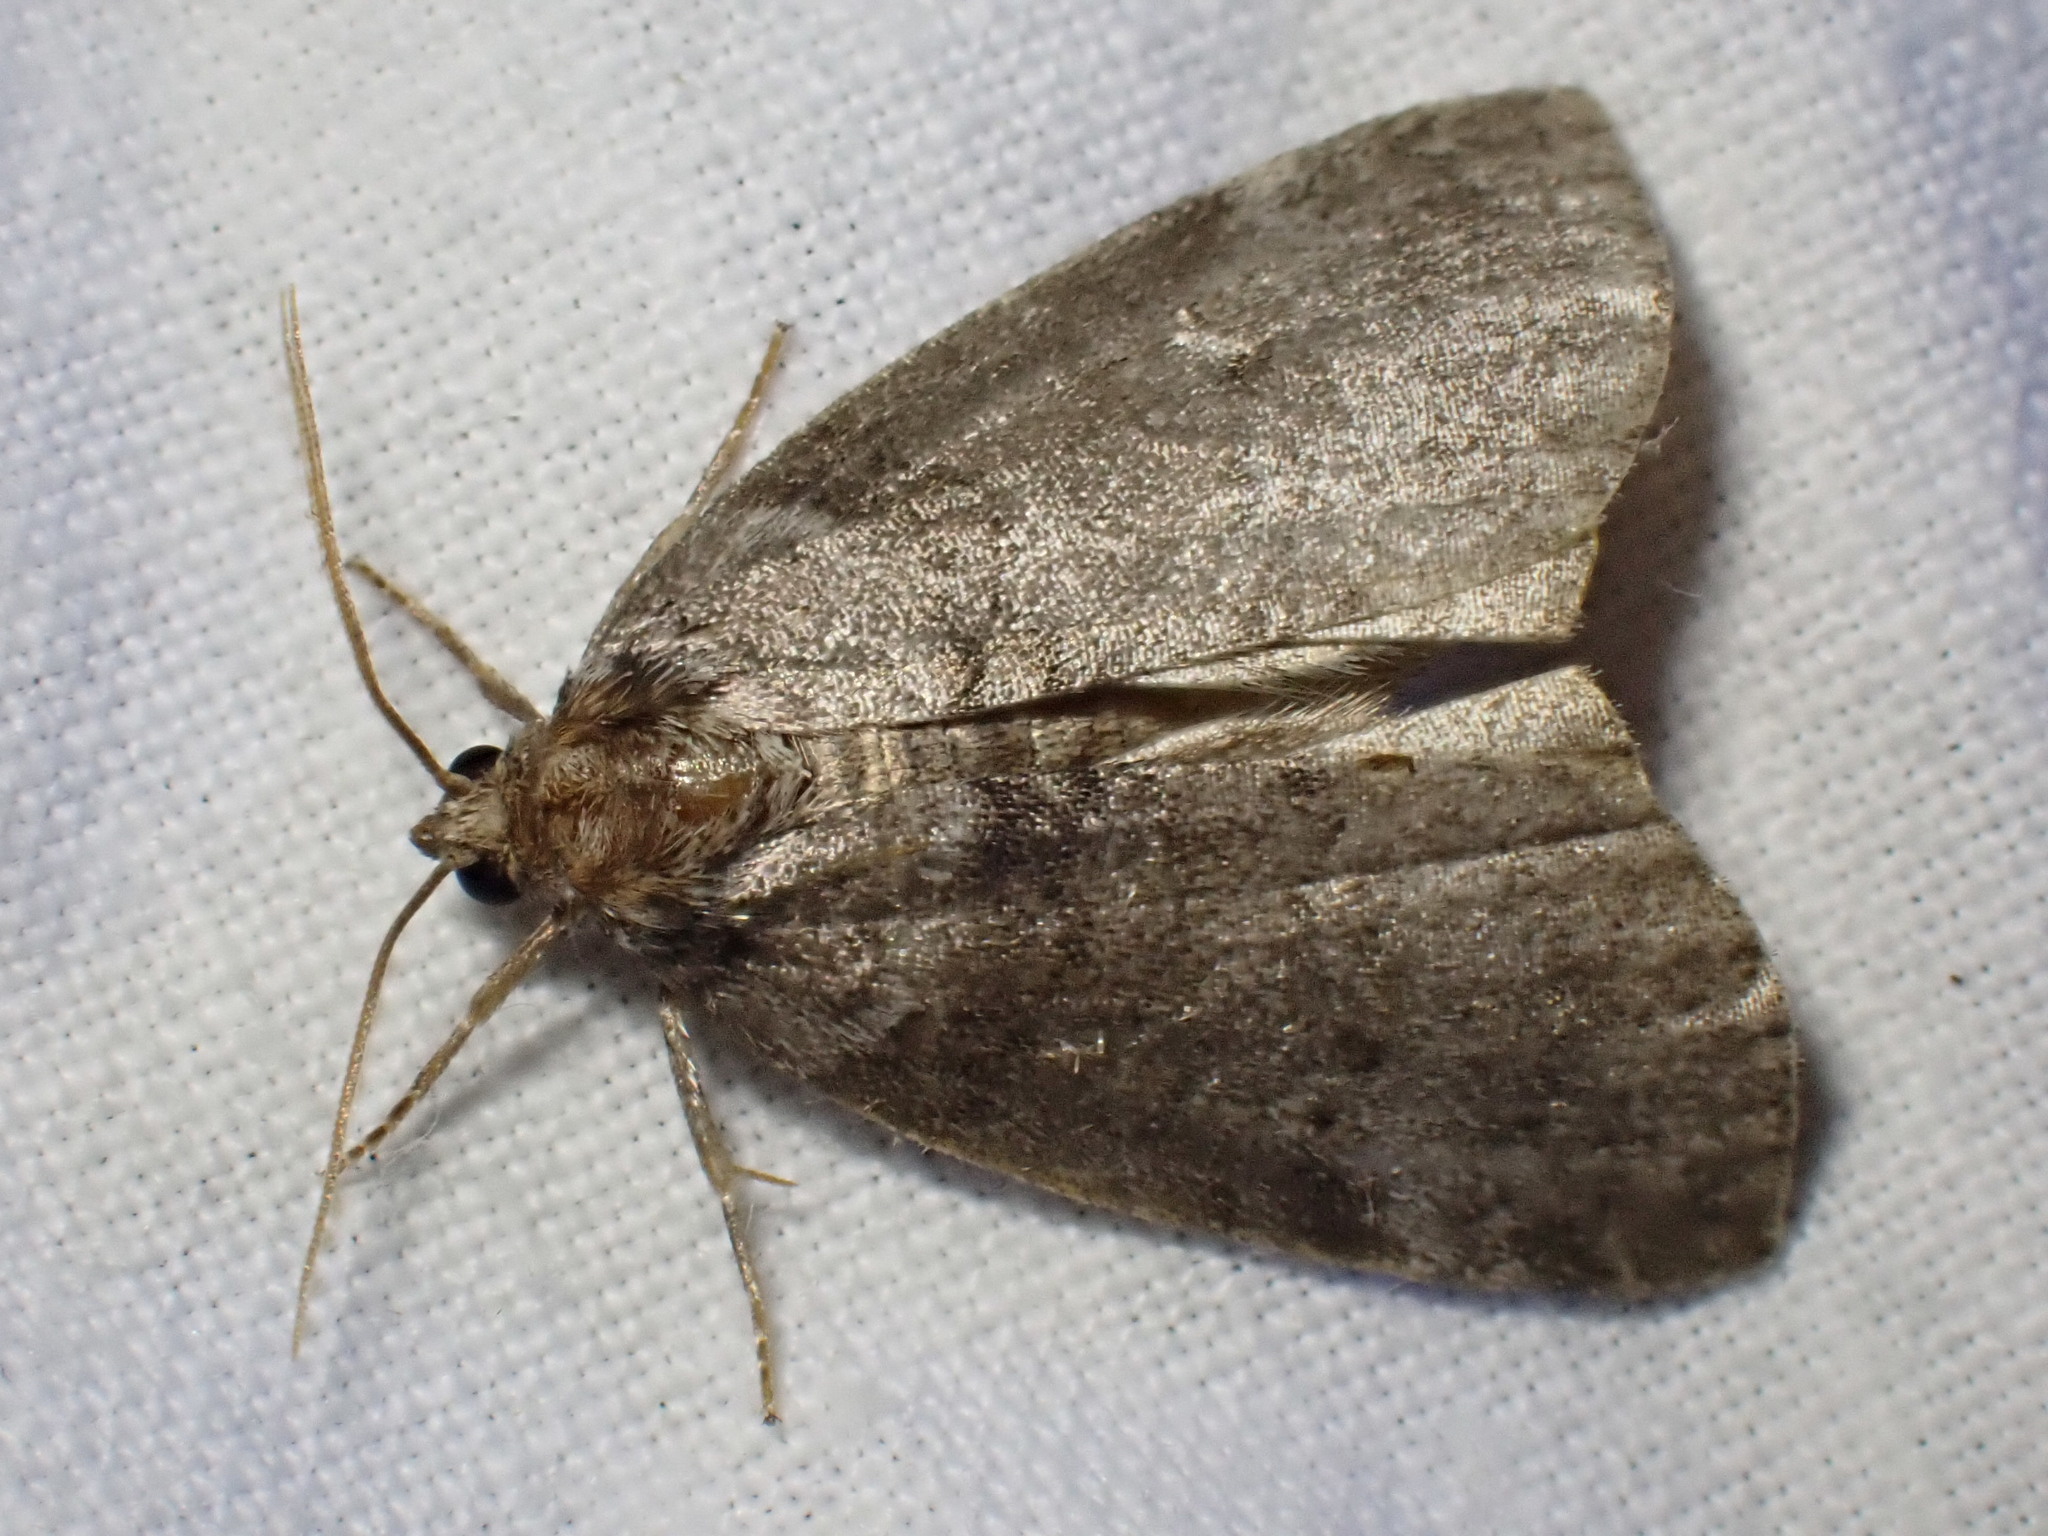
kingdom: Animalia
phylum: Arthropoda
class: Insecta
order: Lepidoptera
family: Drepanidae
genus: Ochropacha
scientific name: Ochropacha duplaris
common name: Common lutestring
